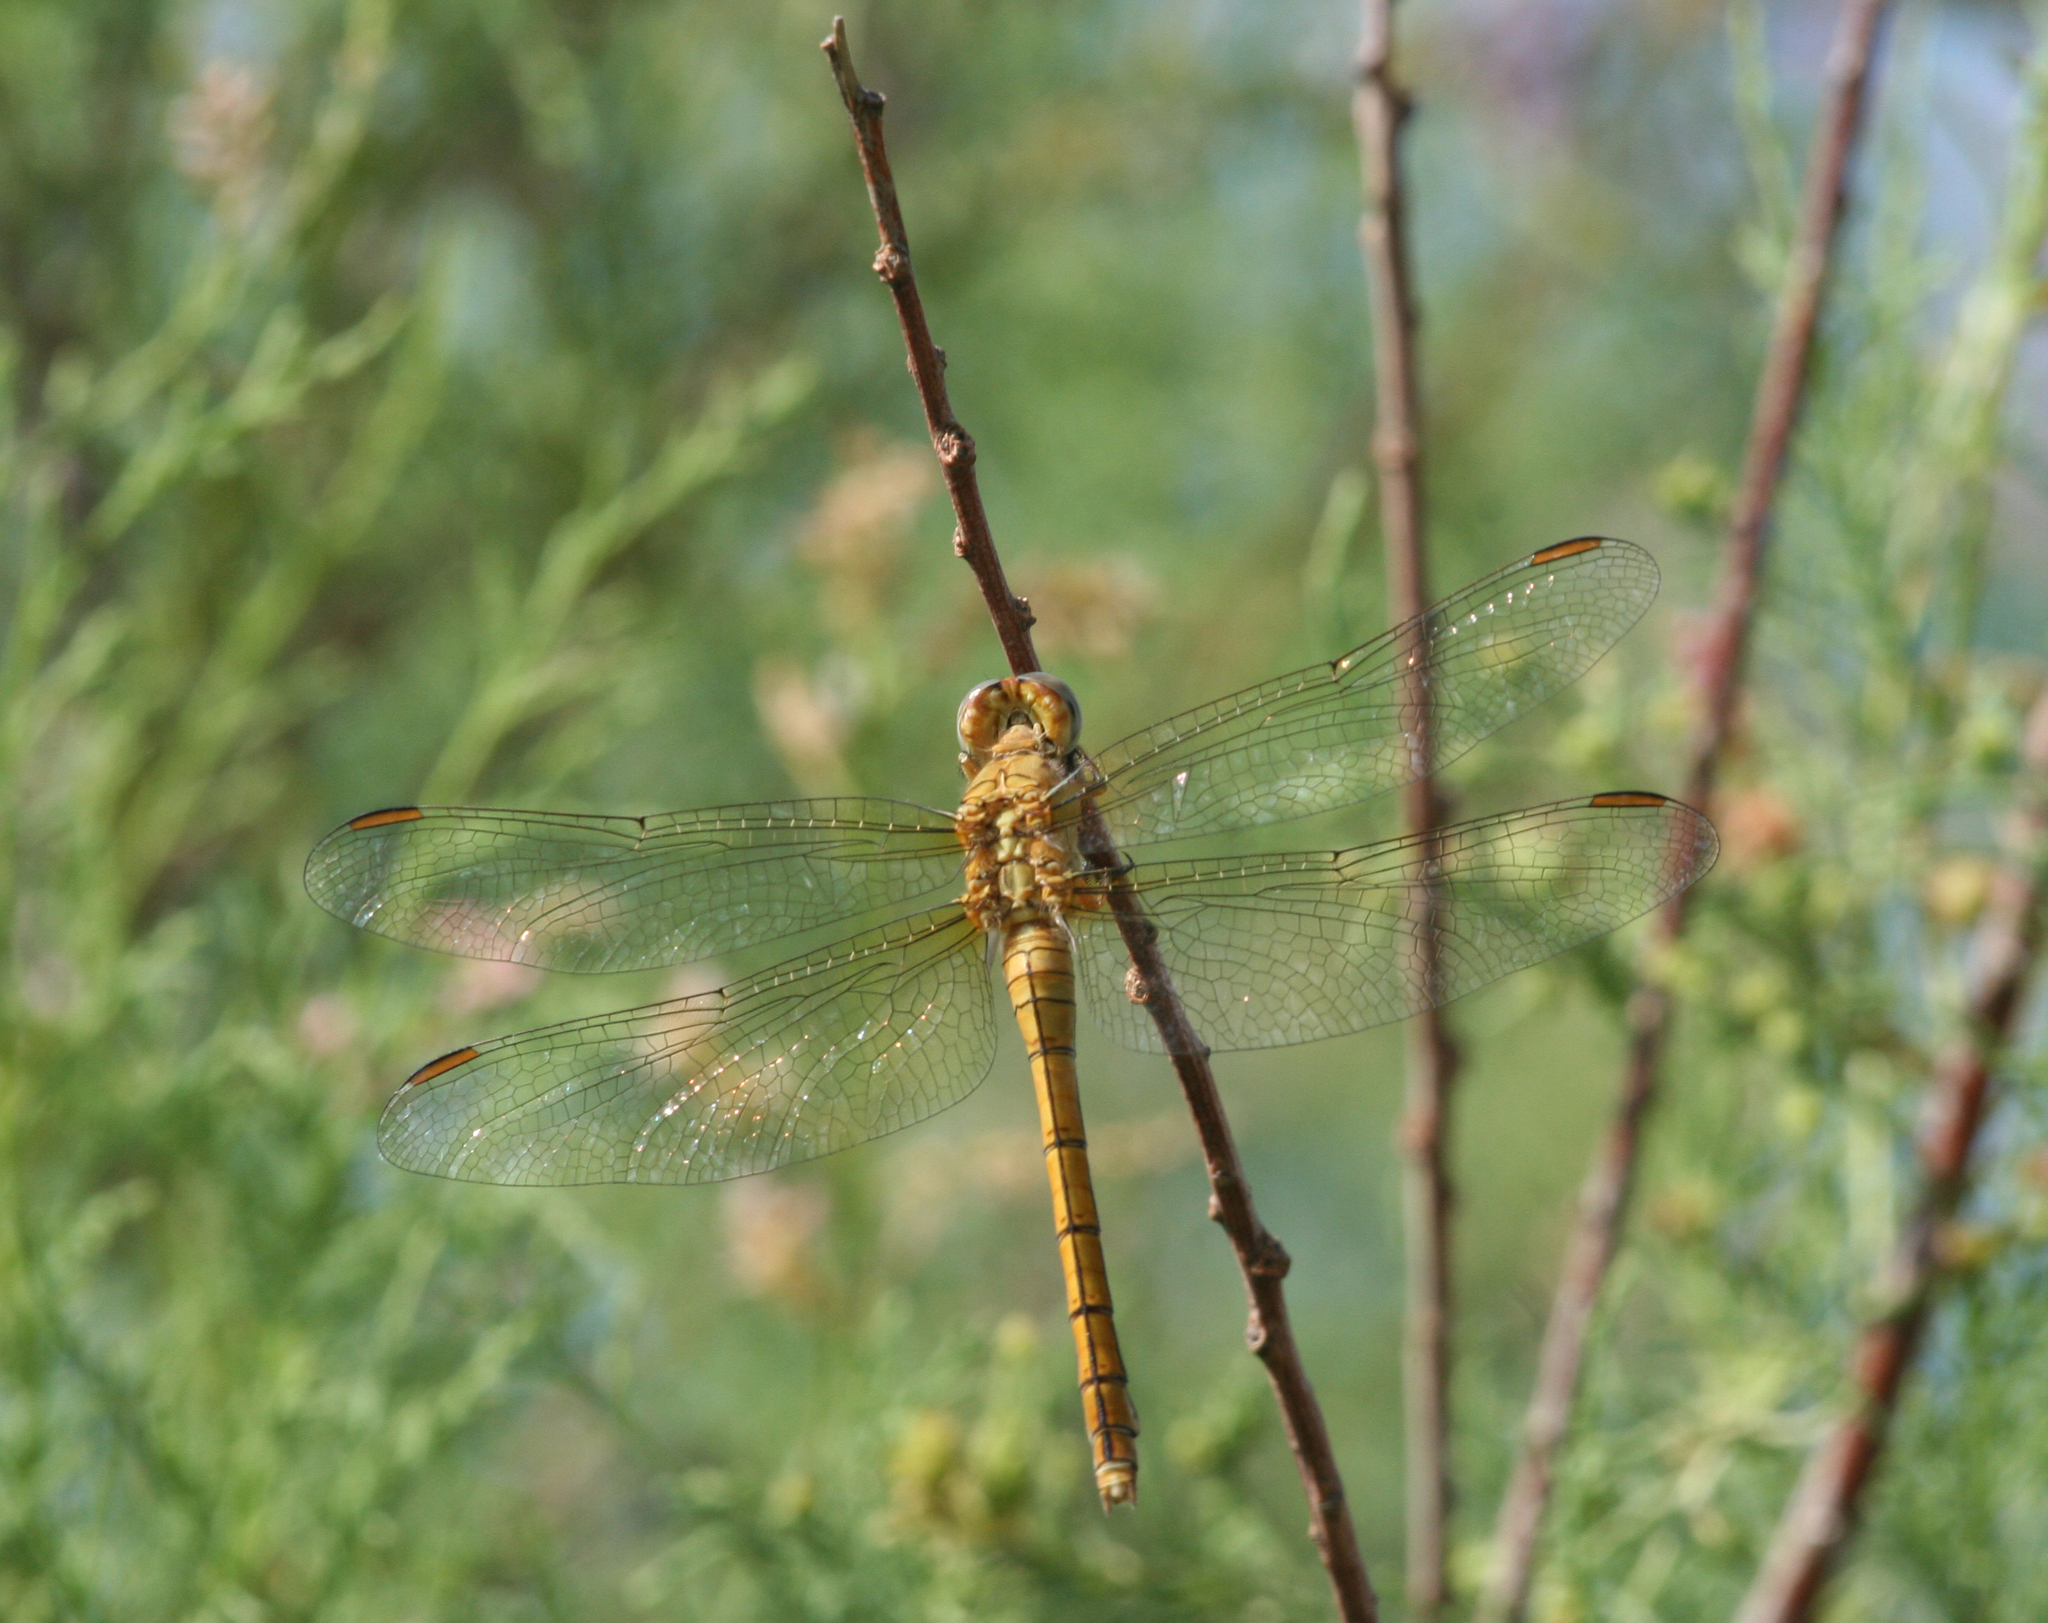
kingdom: Animalia
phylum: Arthropoda
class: Insecta
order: Odonata
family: Libellulidae
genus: Orthetrum
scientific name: Orthetrum coerulescens
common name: Keeled skimmer
